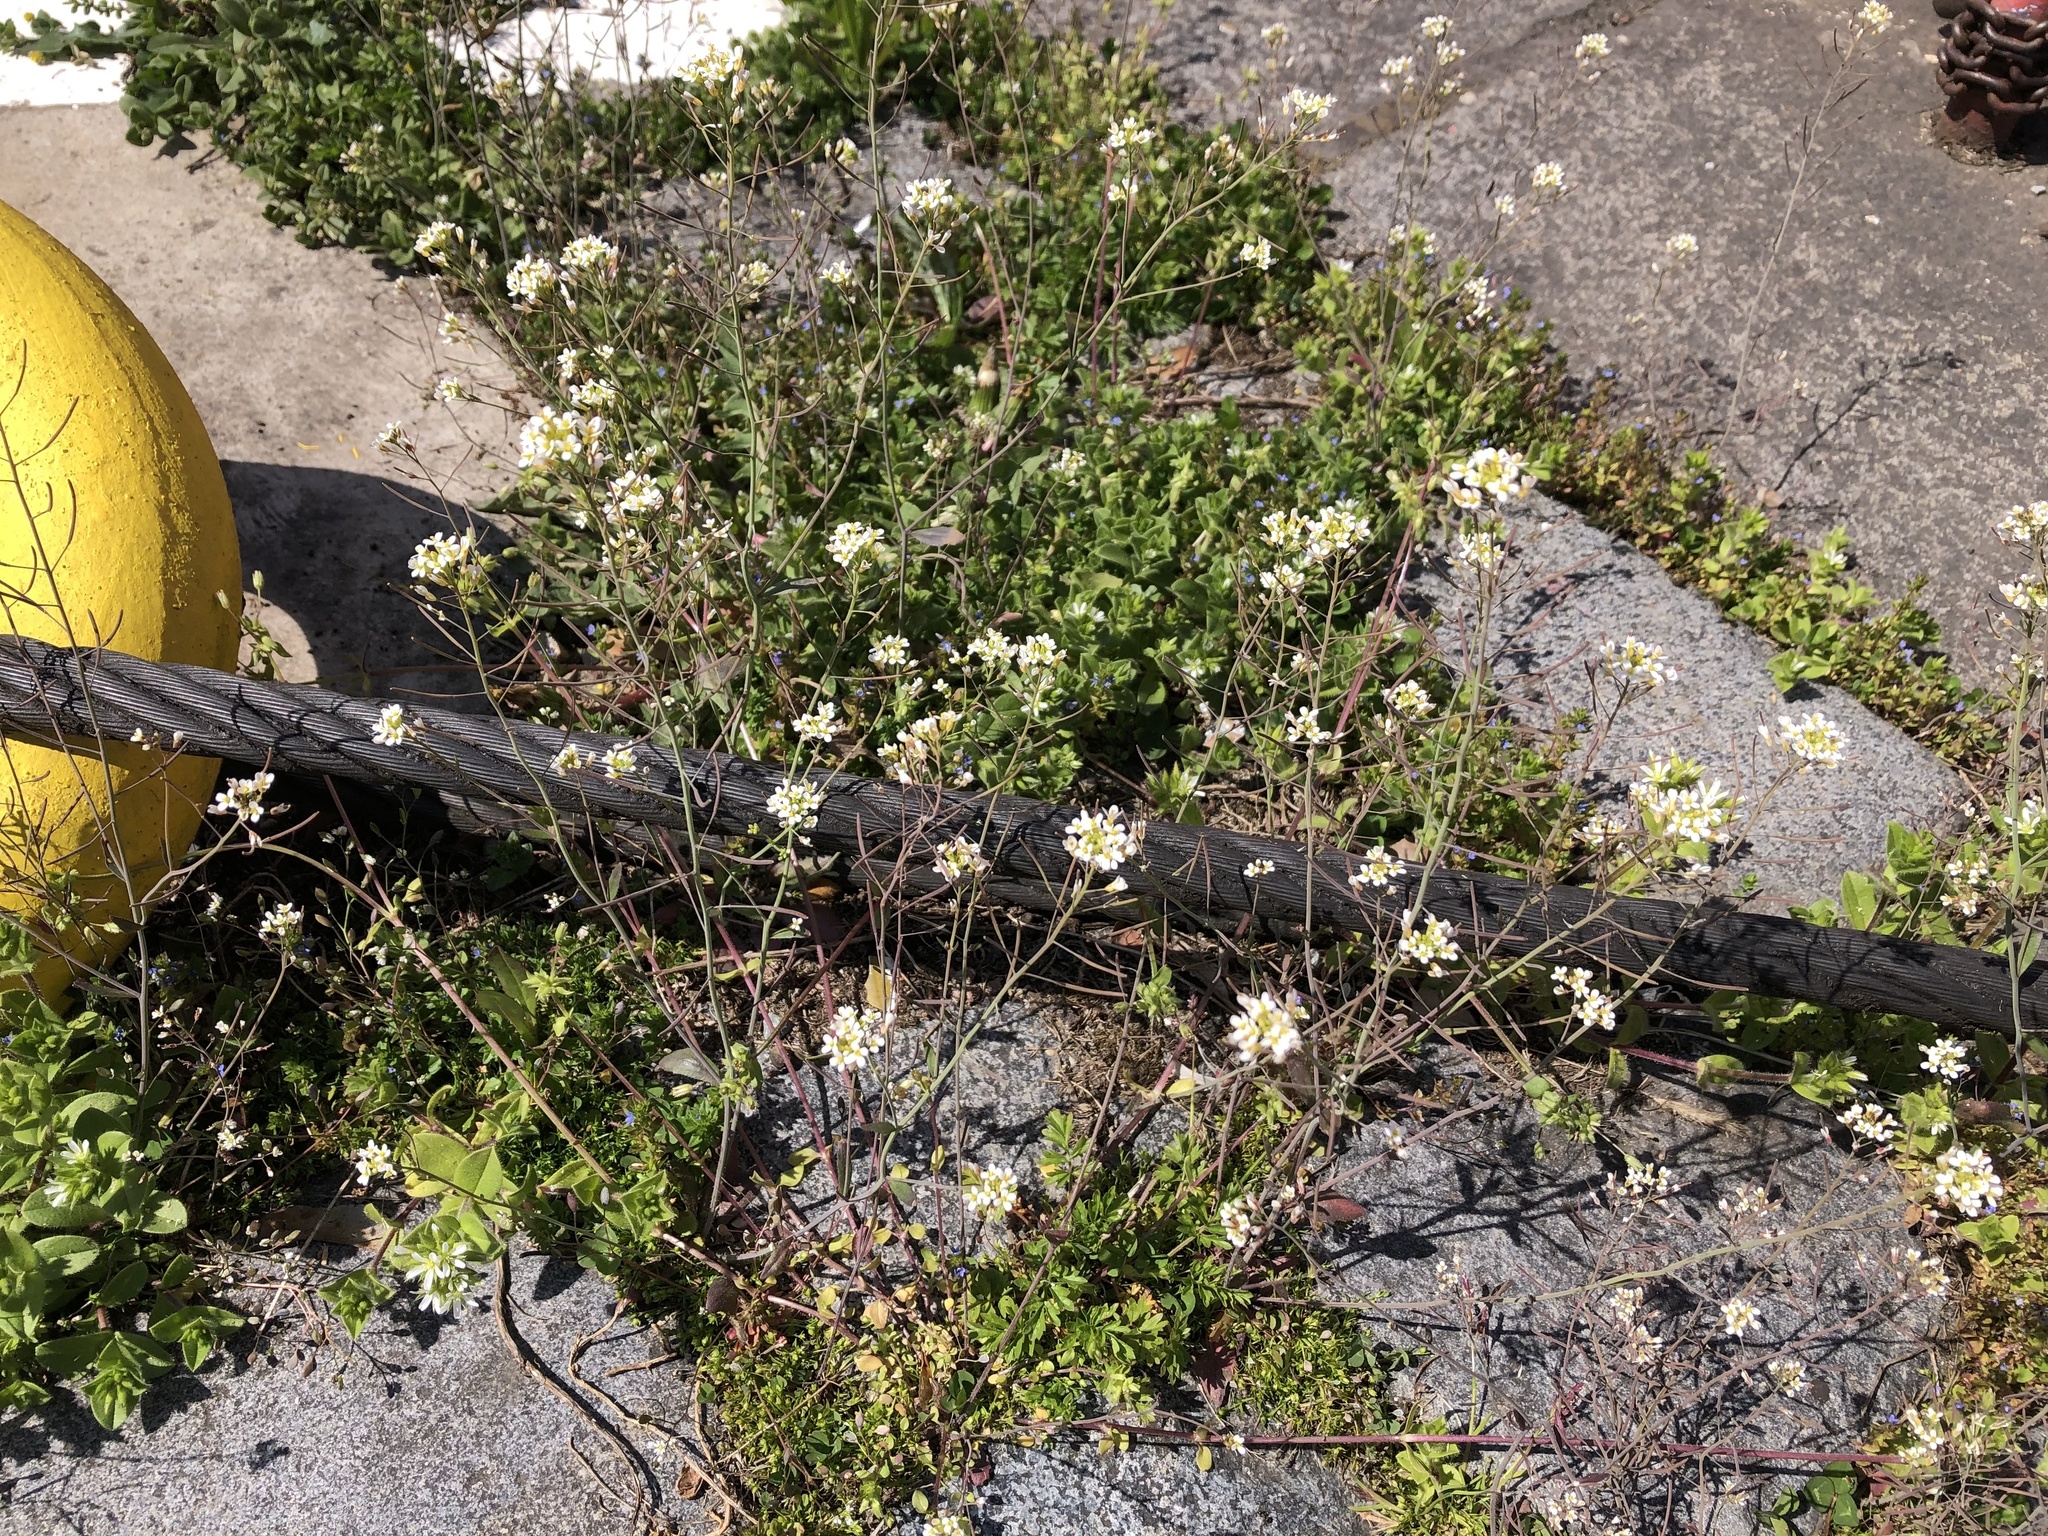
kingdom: Plantae
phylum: Tracheophyta
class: Magnoliopsida
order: Brassicales
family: Brassicaceae
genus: Arabidopsis
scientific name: Arabidopsis thaliana
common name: Thale cress
